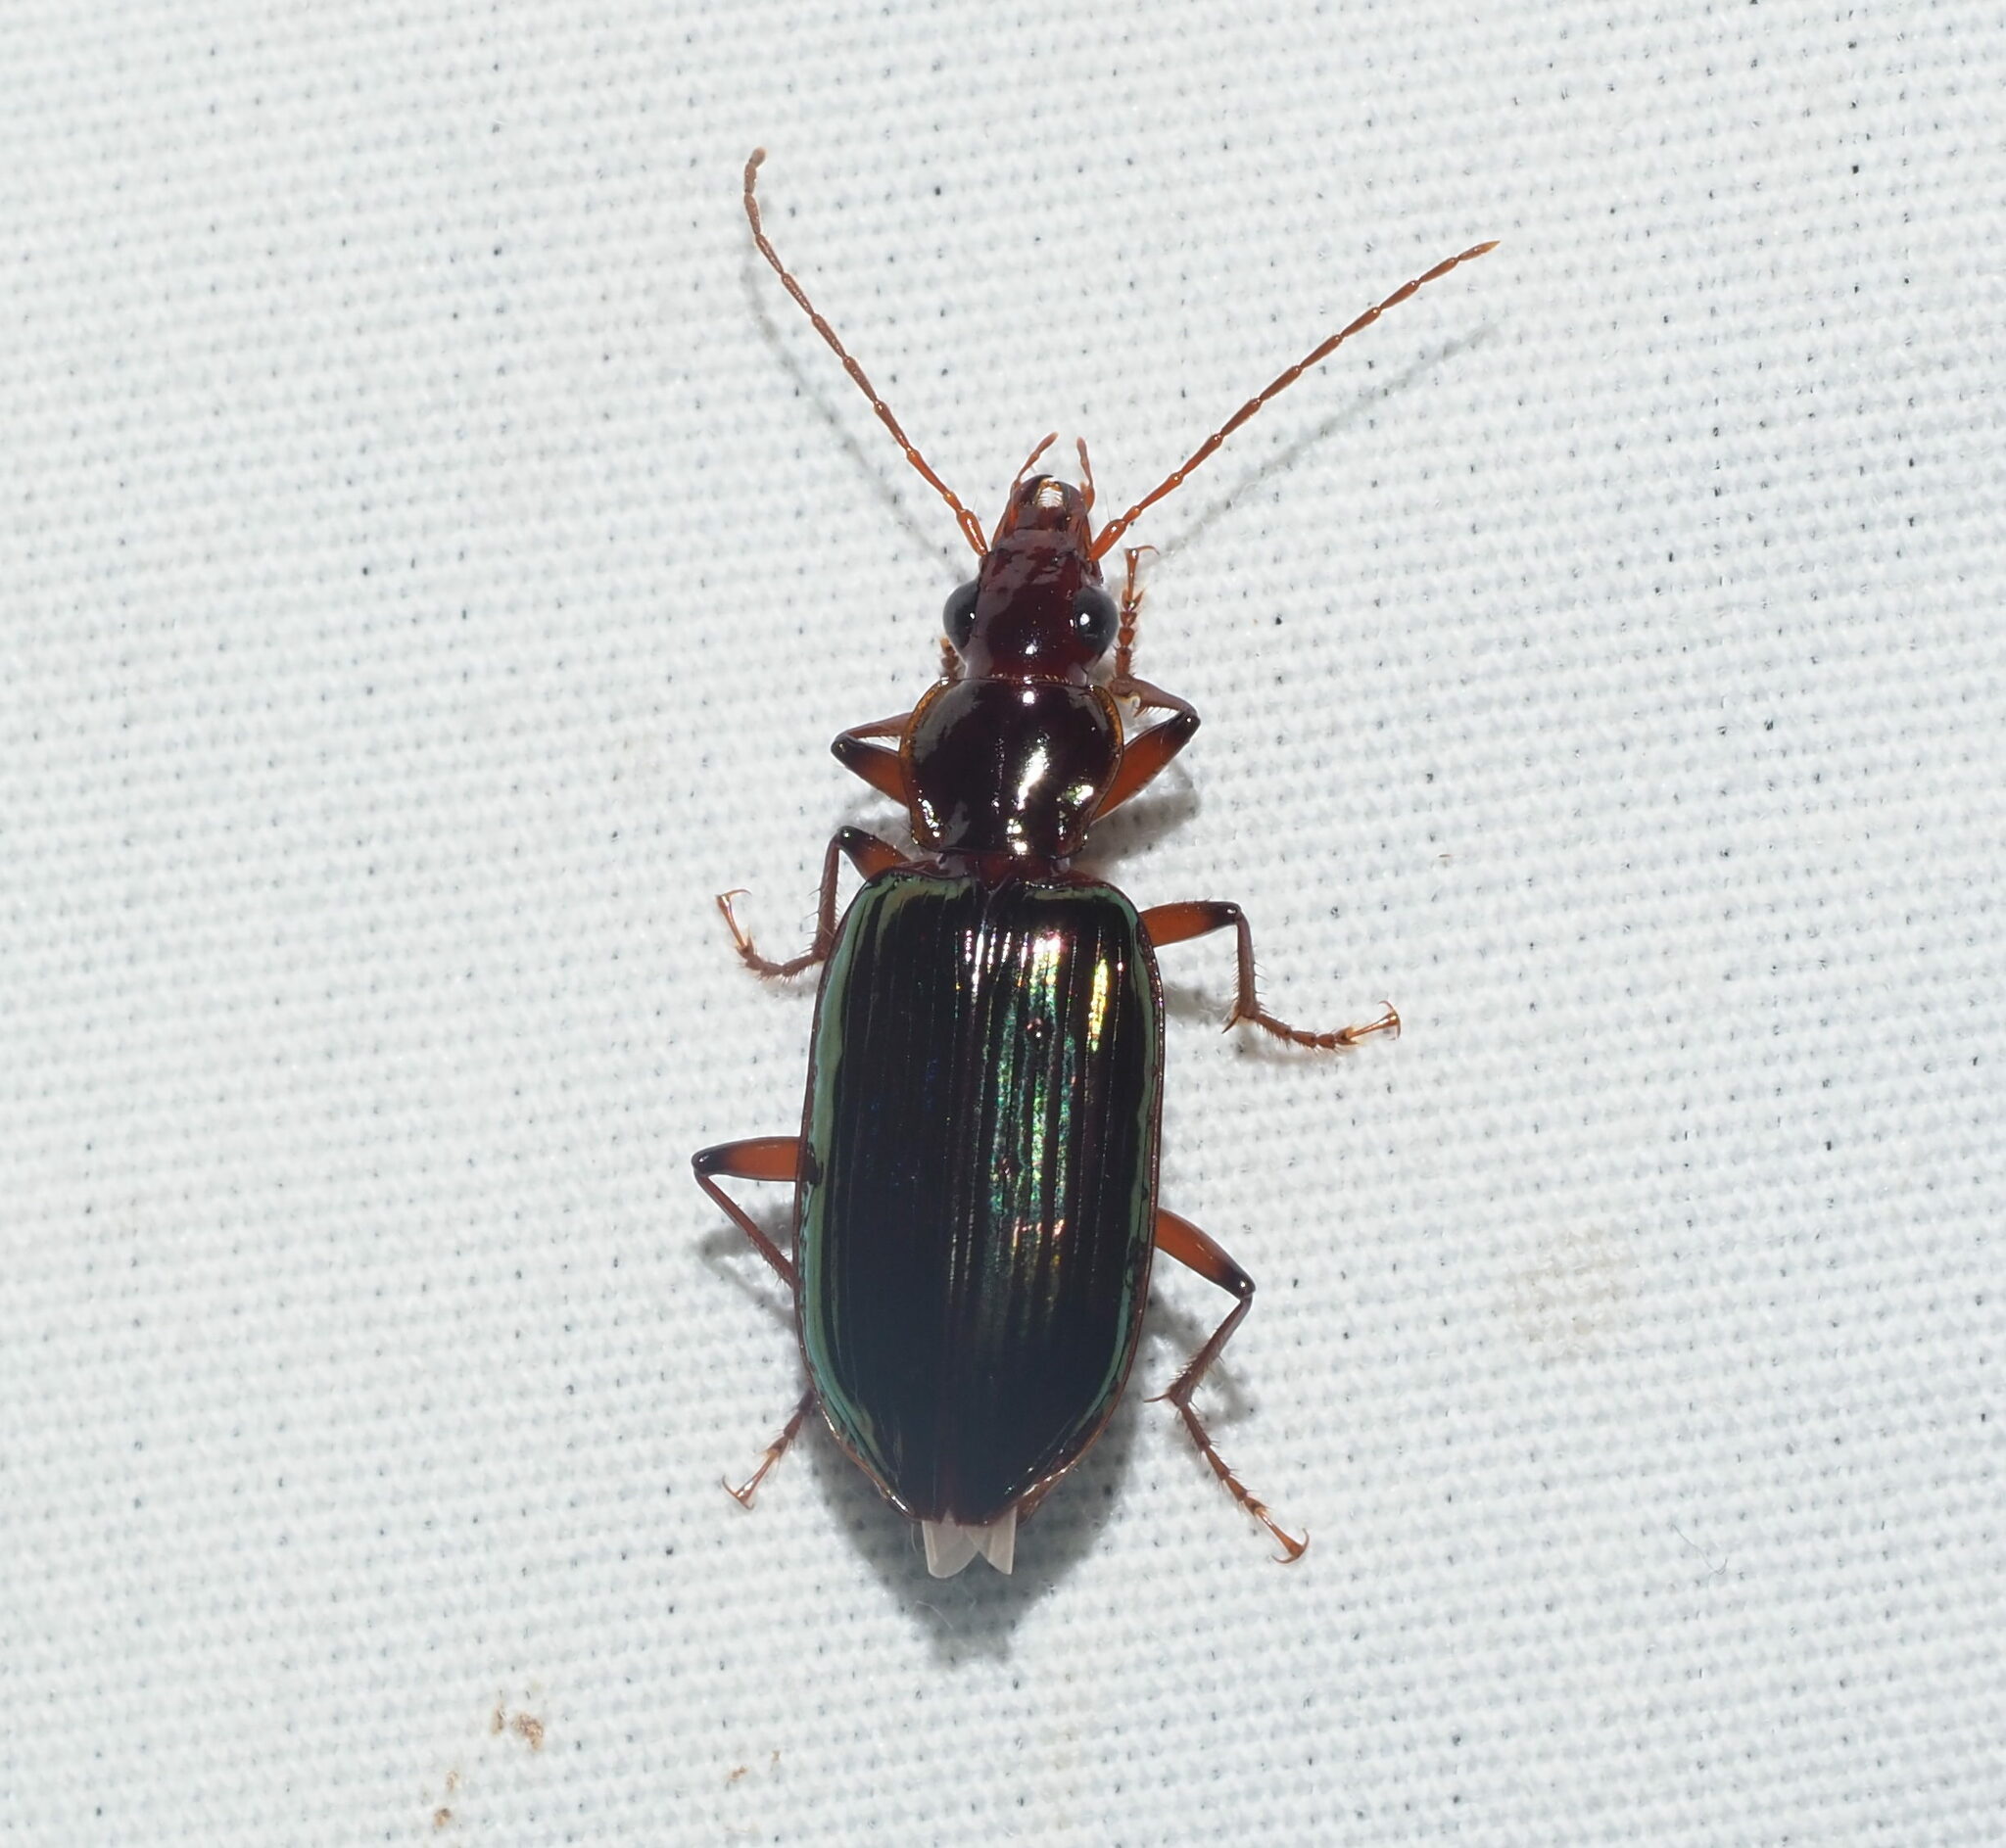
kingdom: Animalia
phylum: Arthropoda
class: Insecta
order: Coleoptera
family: Carabidae
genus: Metacolpodes
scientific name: Metacolpodes buchannani
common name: Buchanan's harp ground beetle
